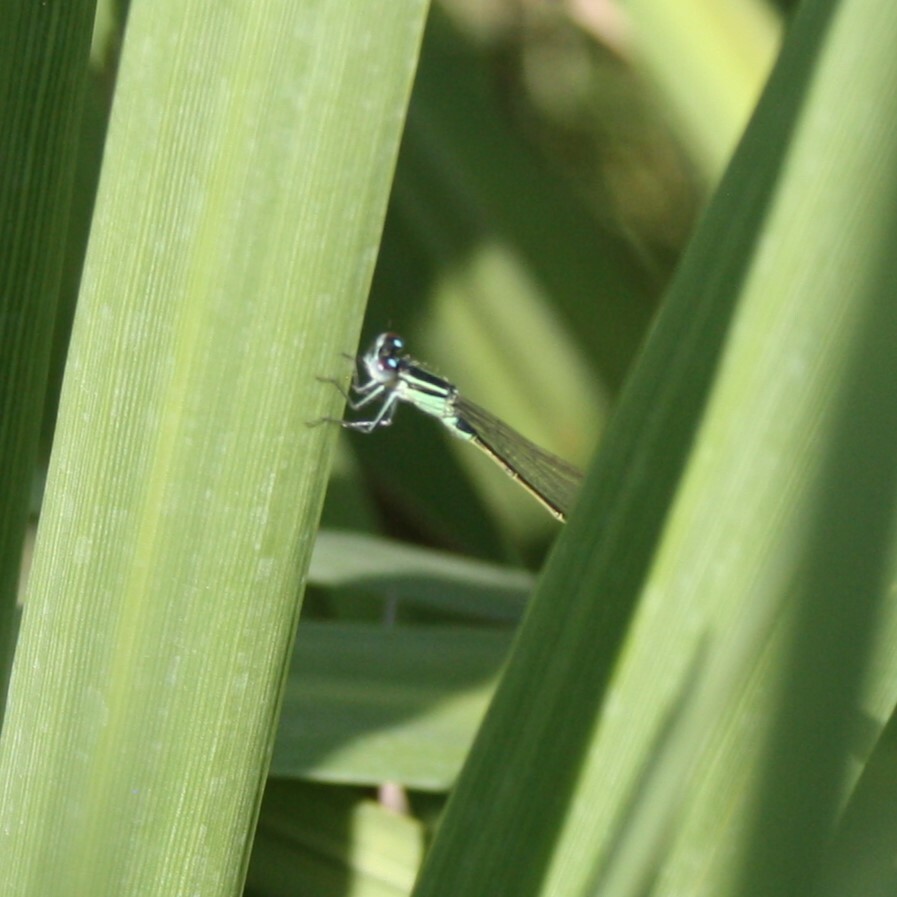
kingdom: Animalia
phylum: Arthropoda
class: Insecta
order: Odonata
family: Coenagrionidae
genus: Ischnura
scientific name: Ischnura elegans
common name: Blue-tailed damselfly
